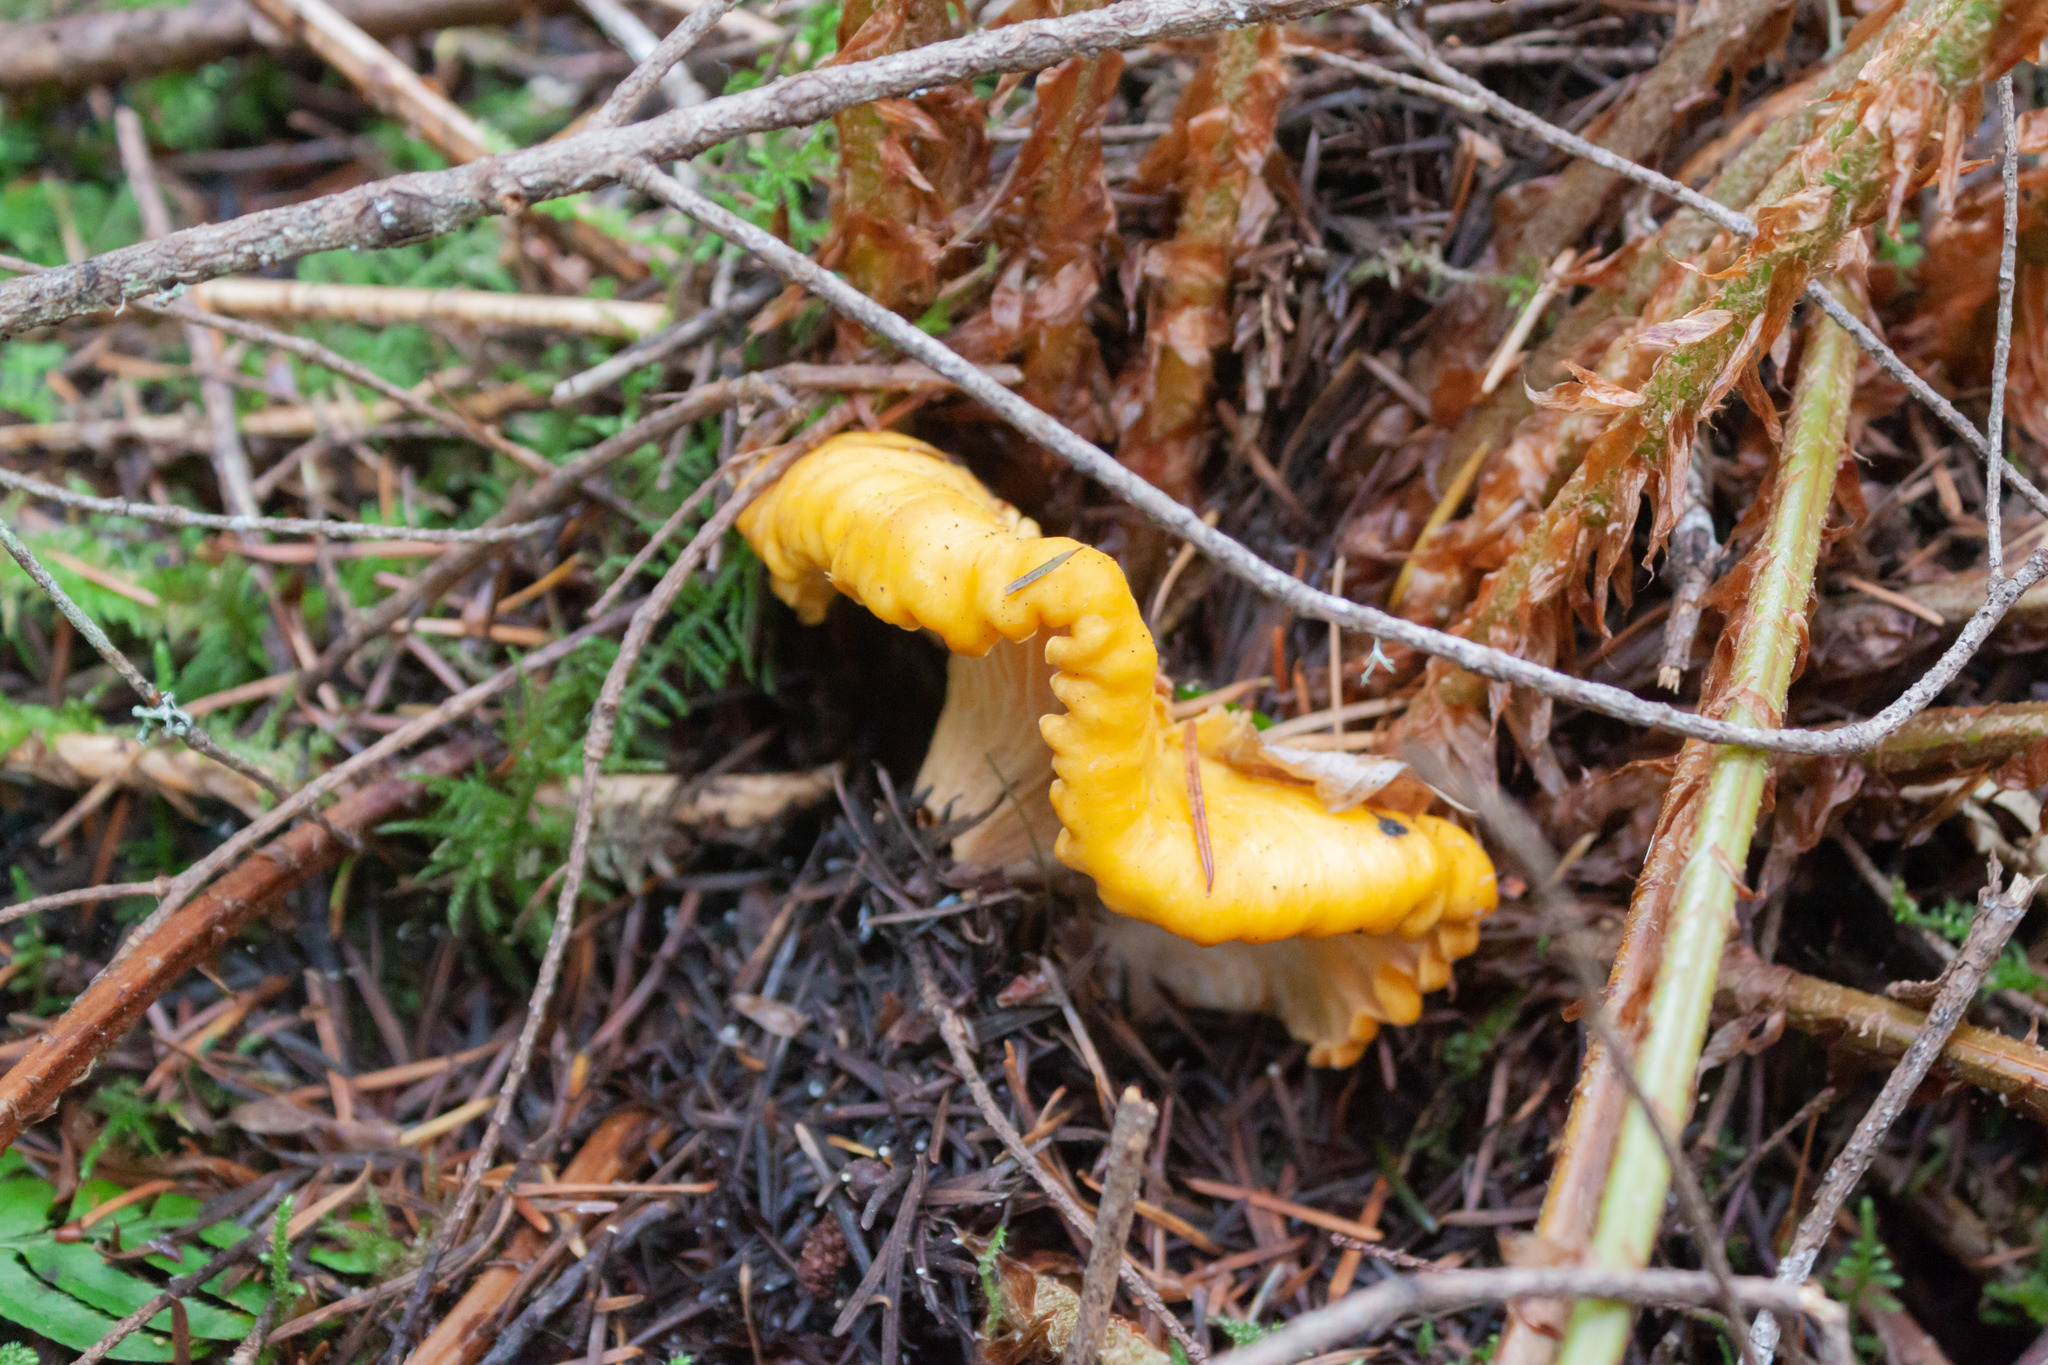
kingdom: Fungi
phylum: Basidiomycota
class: Agaricomycetes
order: Cantharellales
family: Hydnaceae
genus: Cantharellus
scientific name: Cantharellus formosus
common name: Pacific golden chanterelle
